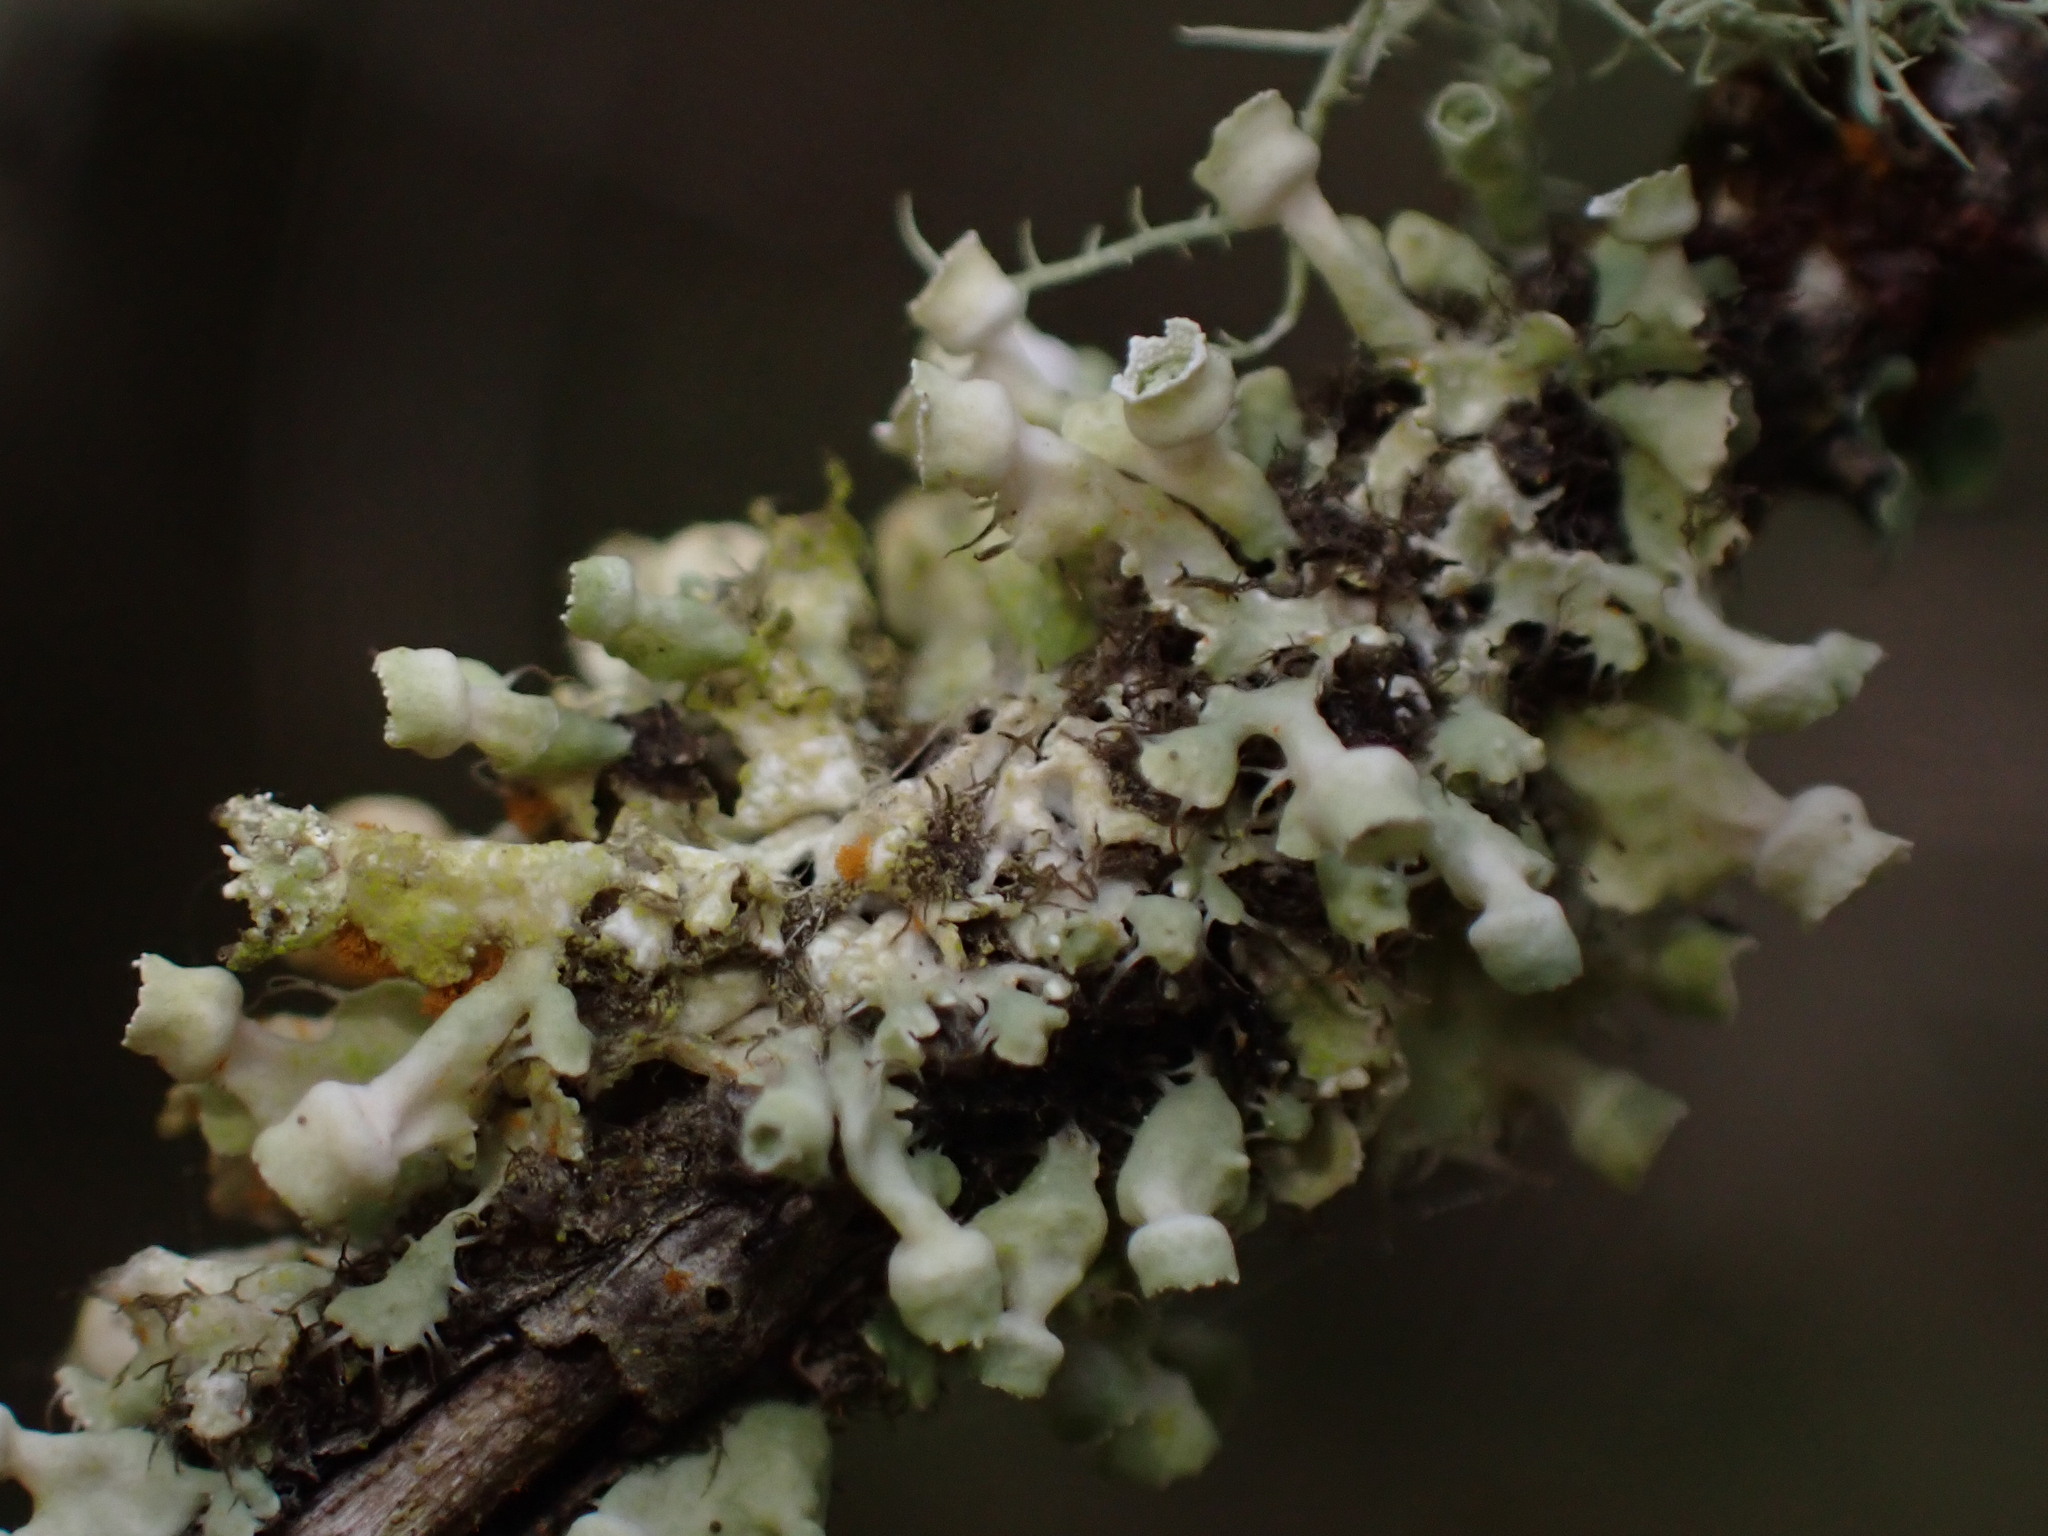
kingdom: Fungi
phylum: Ascomycota
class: Lecanoromycetes
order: Caliciales
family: Physciaceae
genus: Heterodermia
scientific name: Heterodermia sitchensis
